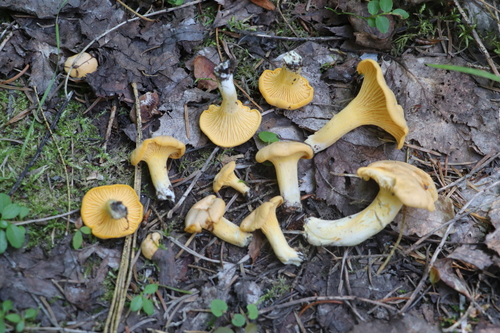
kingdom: Fungi
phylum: Basidiomycota
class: Agaricomycetes
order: Cantharellales
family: Hydnaceae
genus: Cantharellus
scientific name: Cantharellus cibarius
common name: Chanterelle
